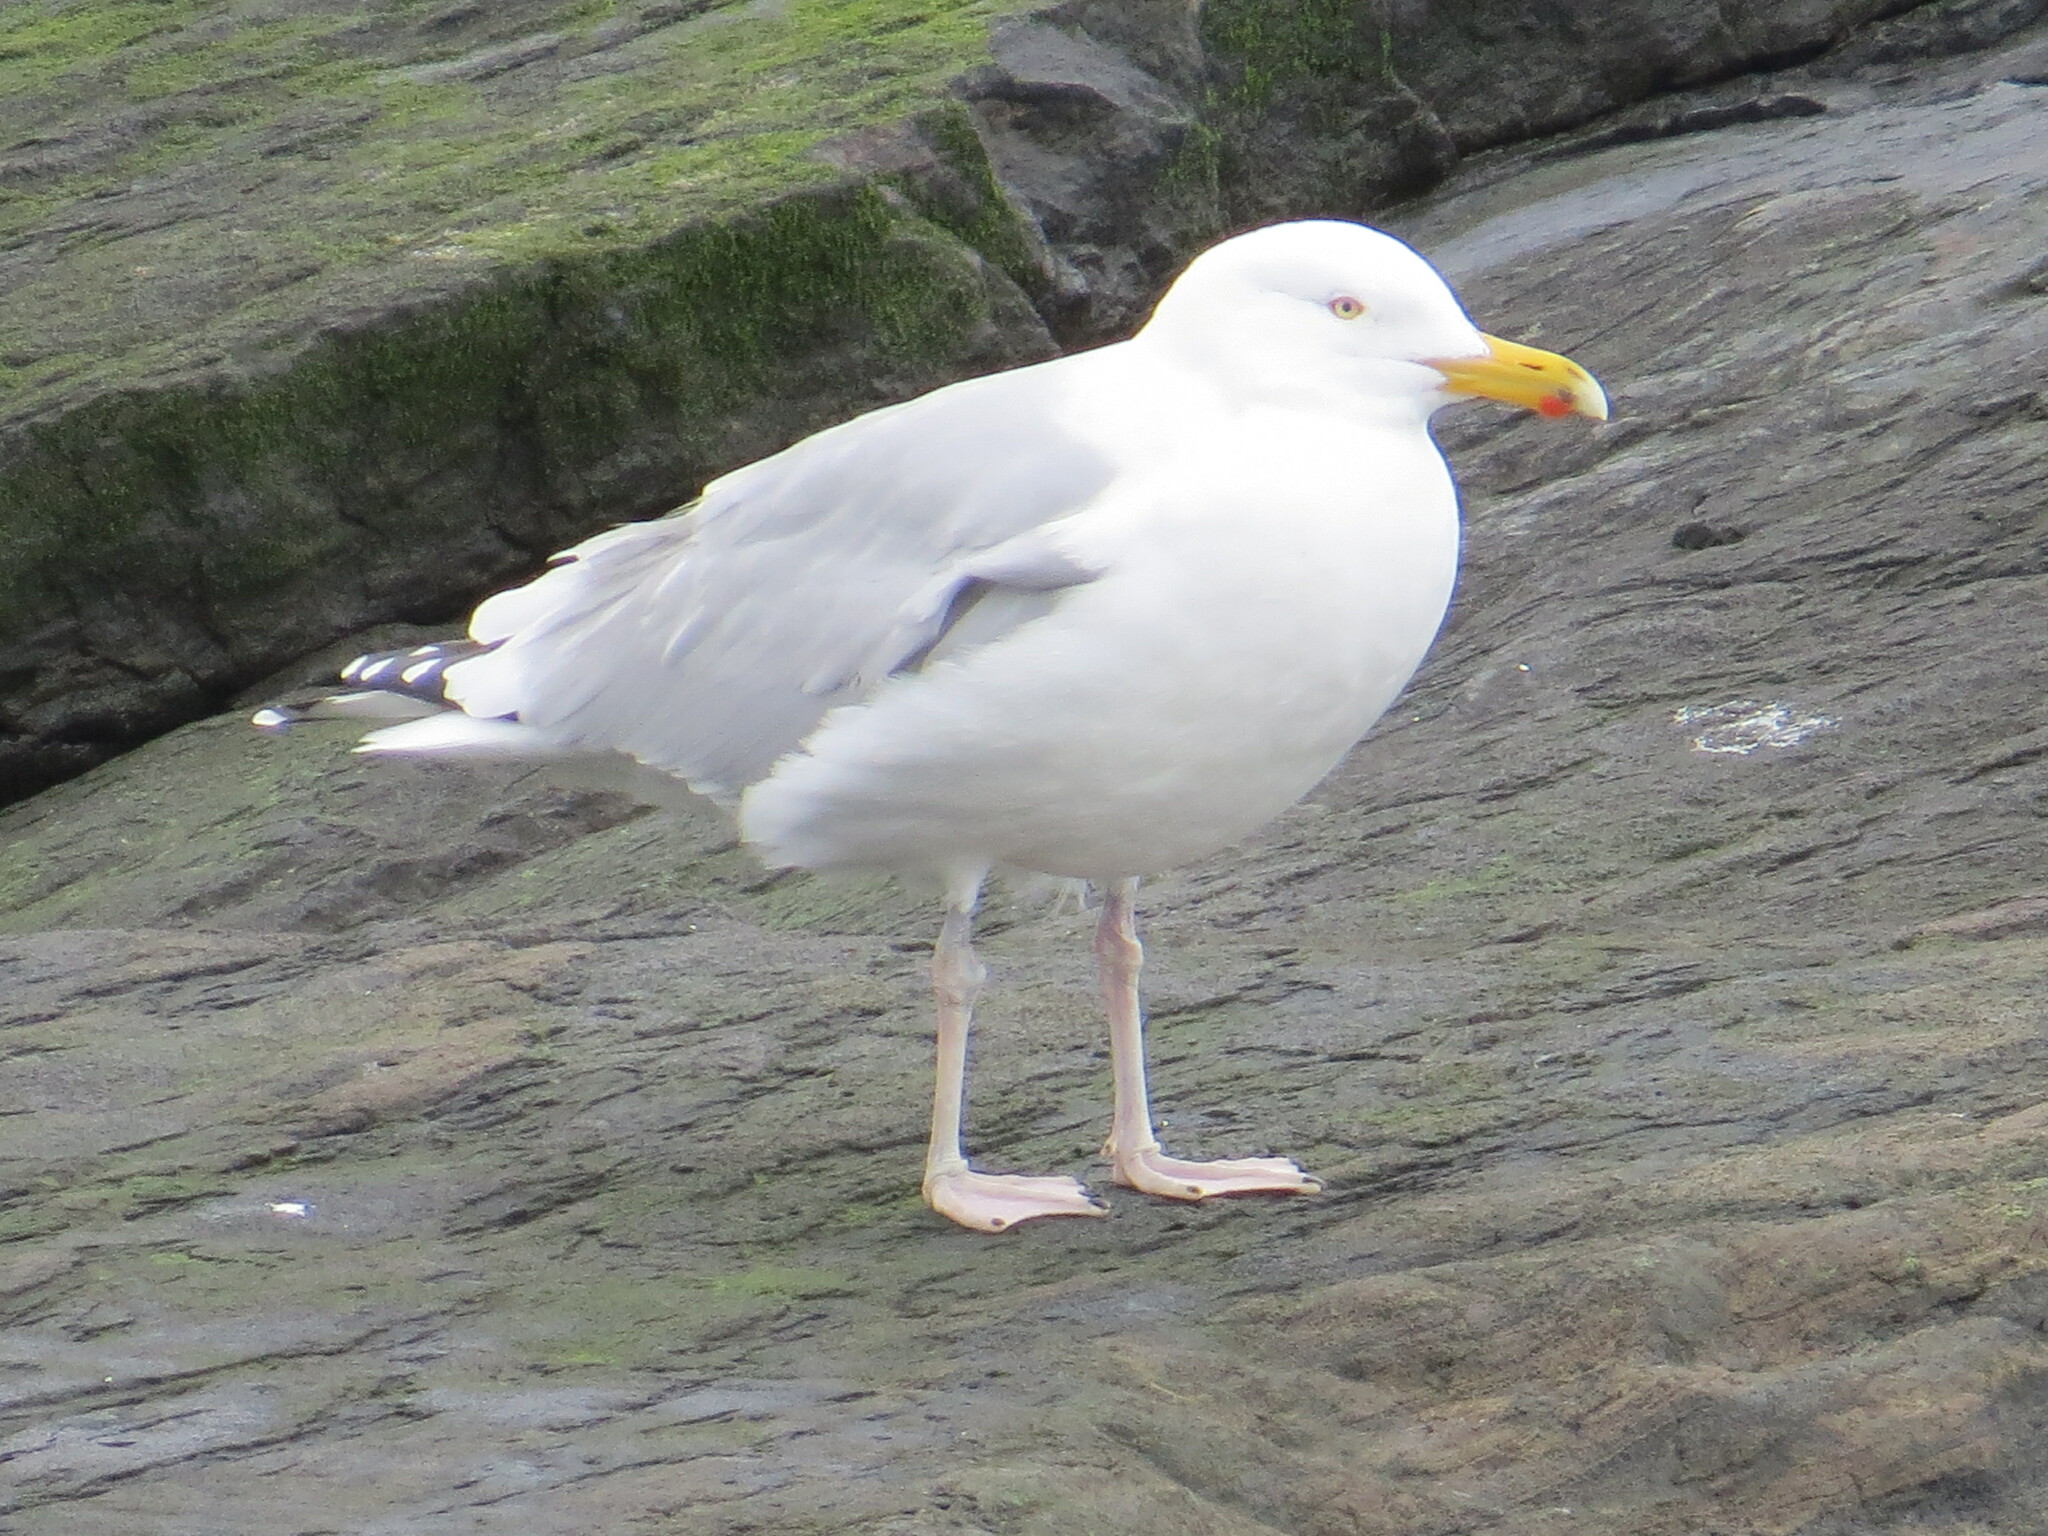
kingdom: Animalia
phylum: Chordata
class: Aves
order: Charadriiformes
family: Laridae
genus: Larus
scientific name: Larus argentatus
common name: Herring gull
